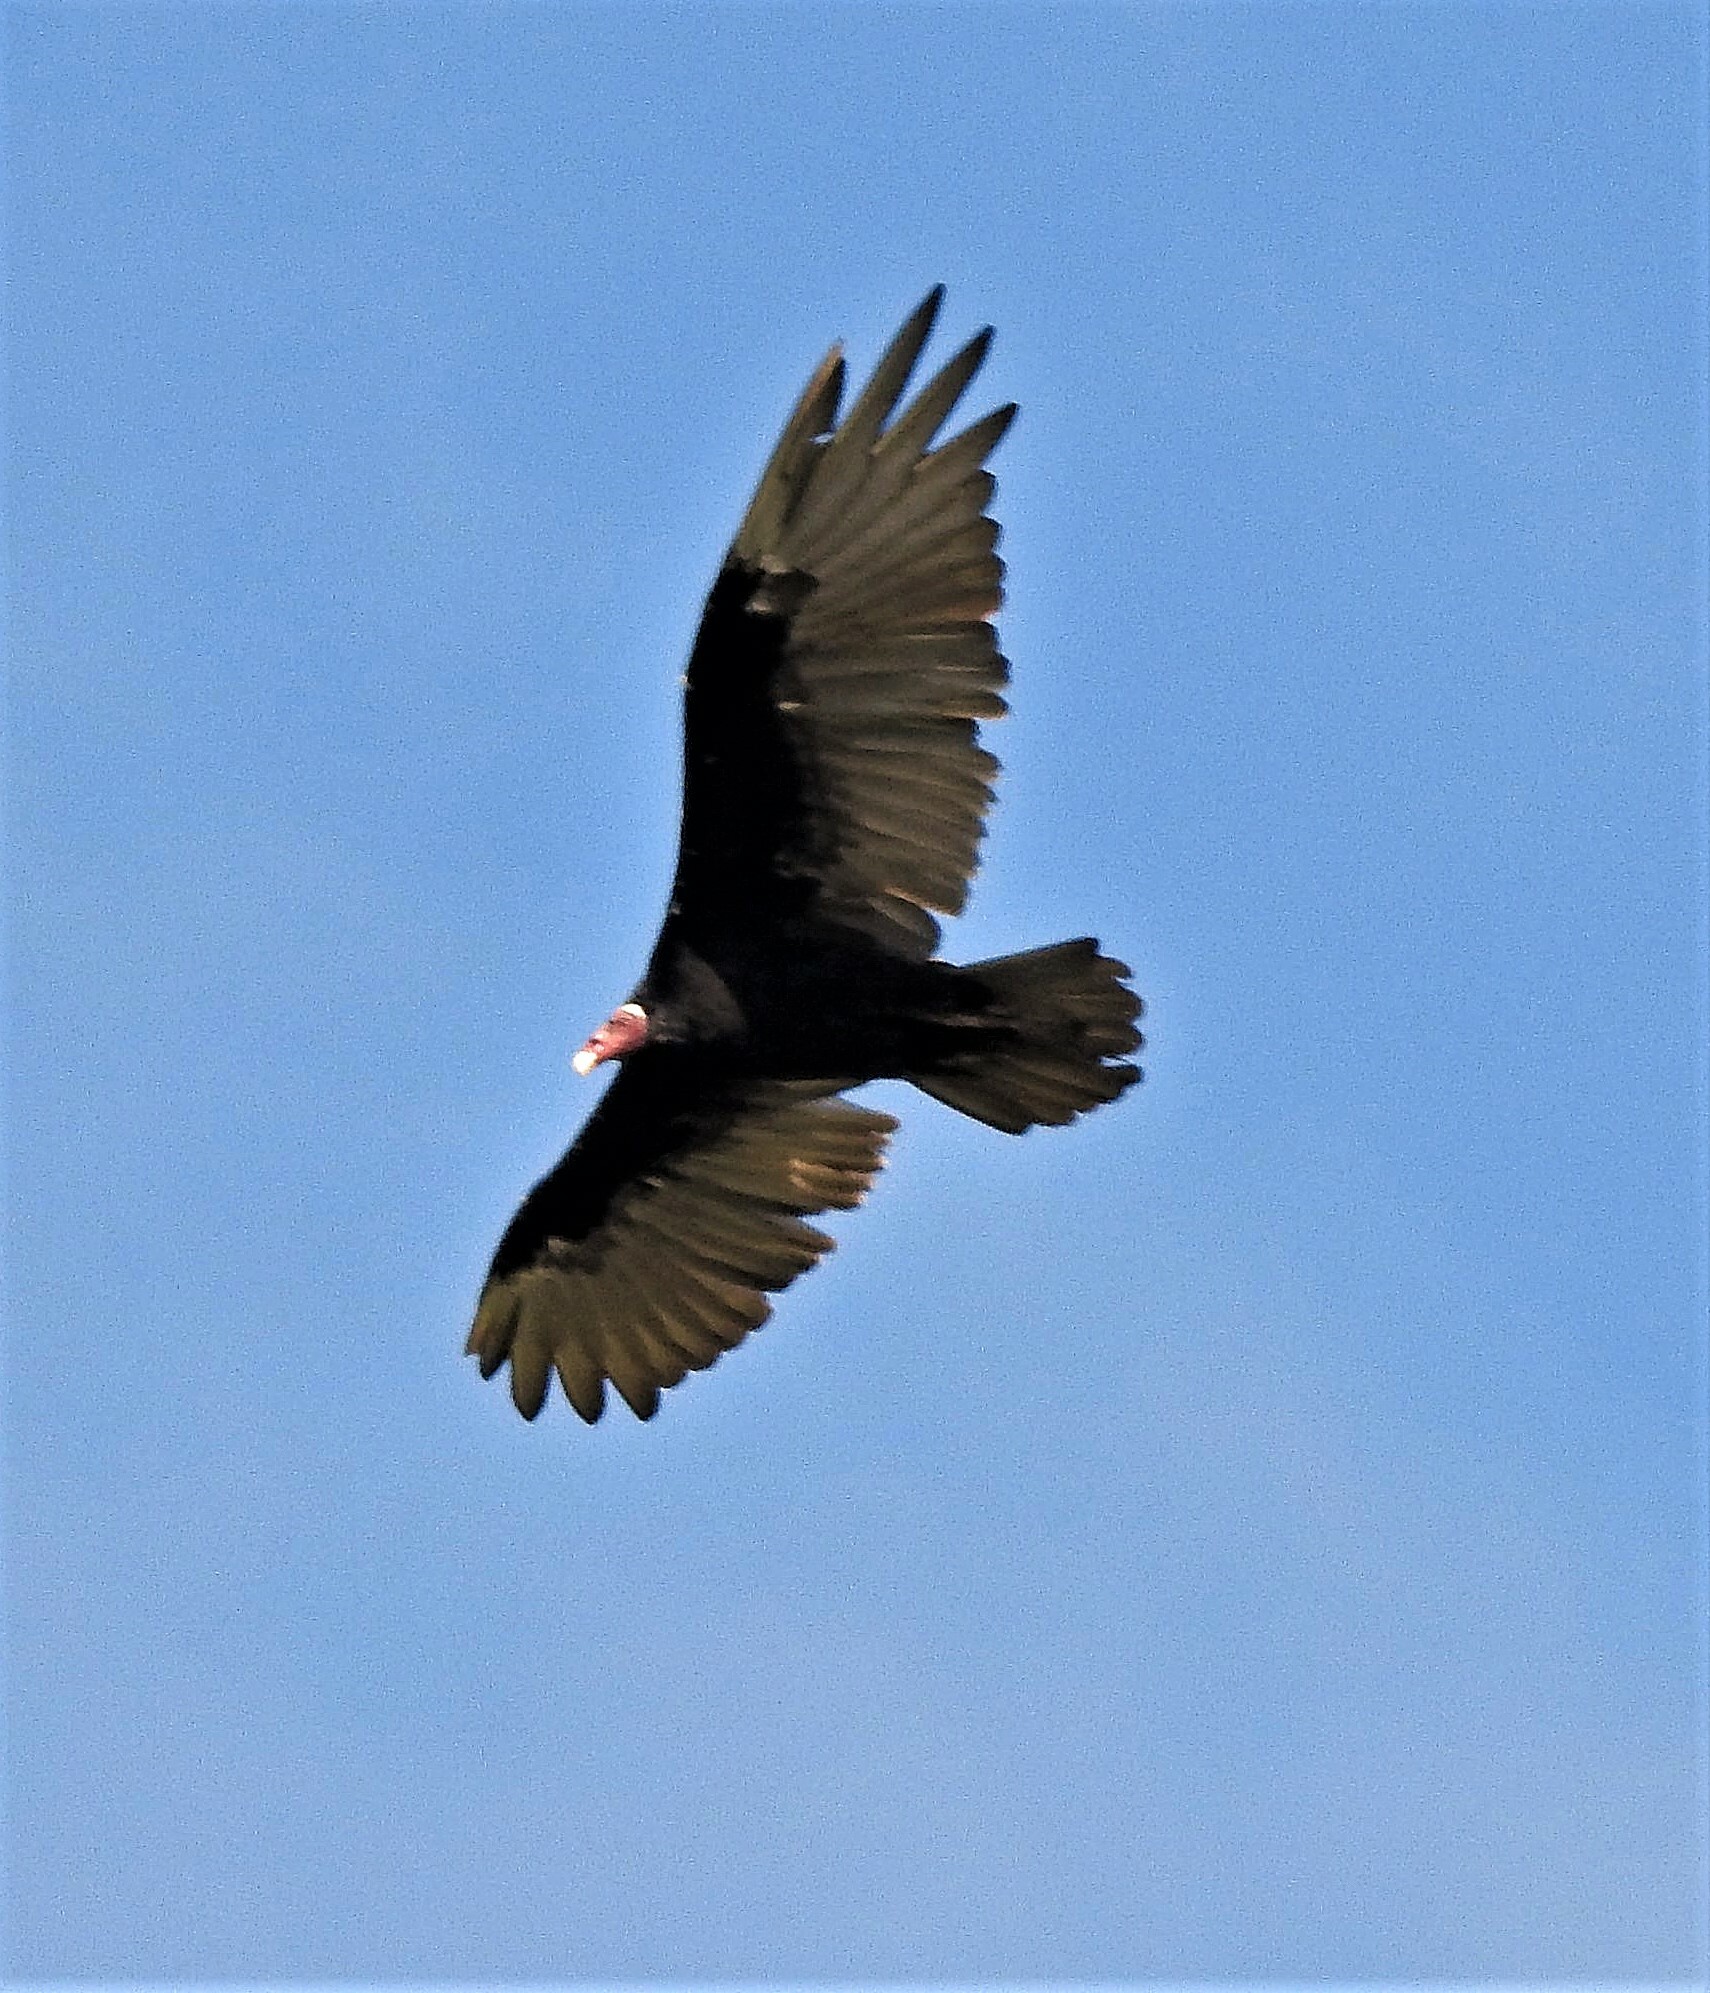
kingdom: Animalia
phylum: Chordata
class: Aves
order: Accipitriformes
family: Cathartidae
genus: Cathartes
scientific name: Cathartes aura
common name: Turkey vulture
